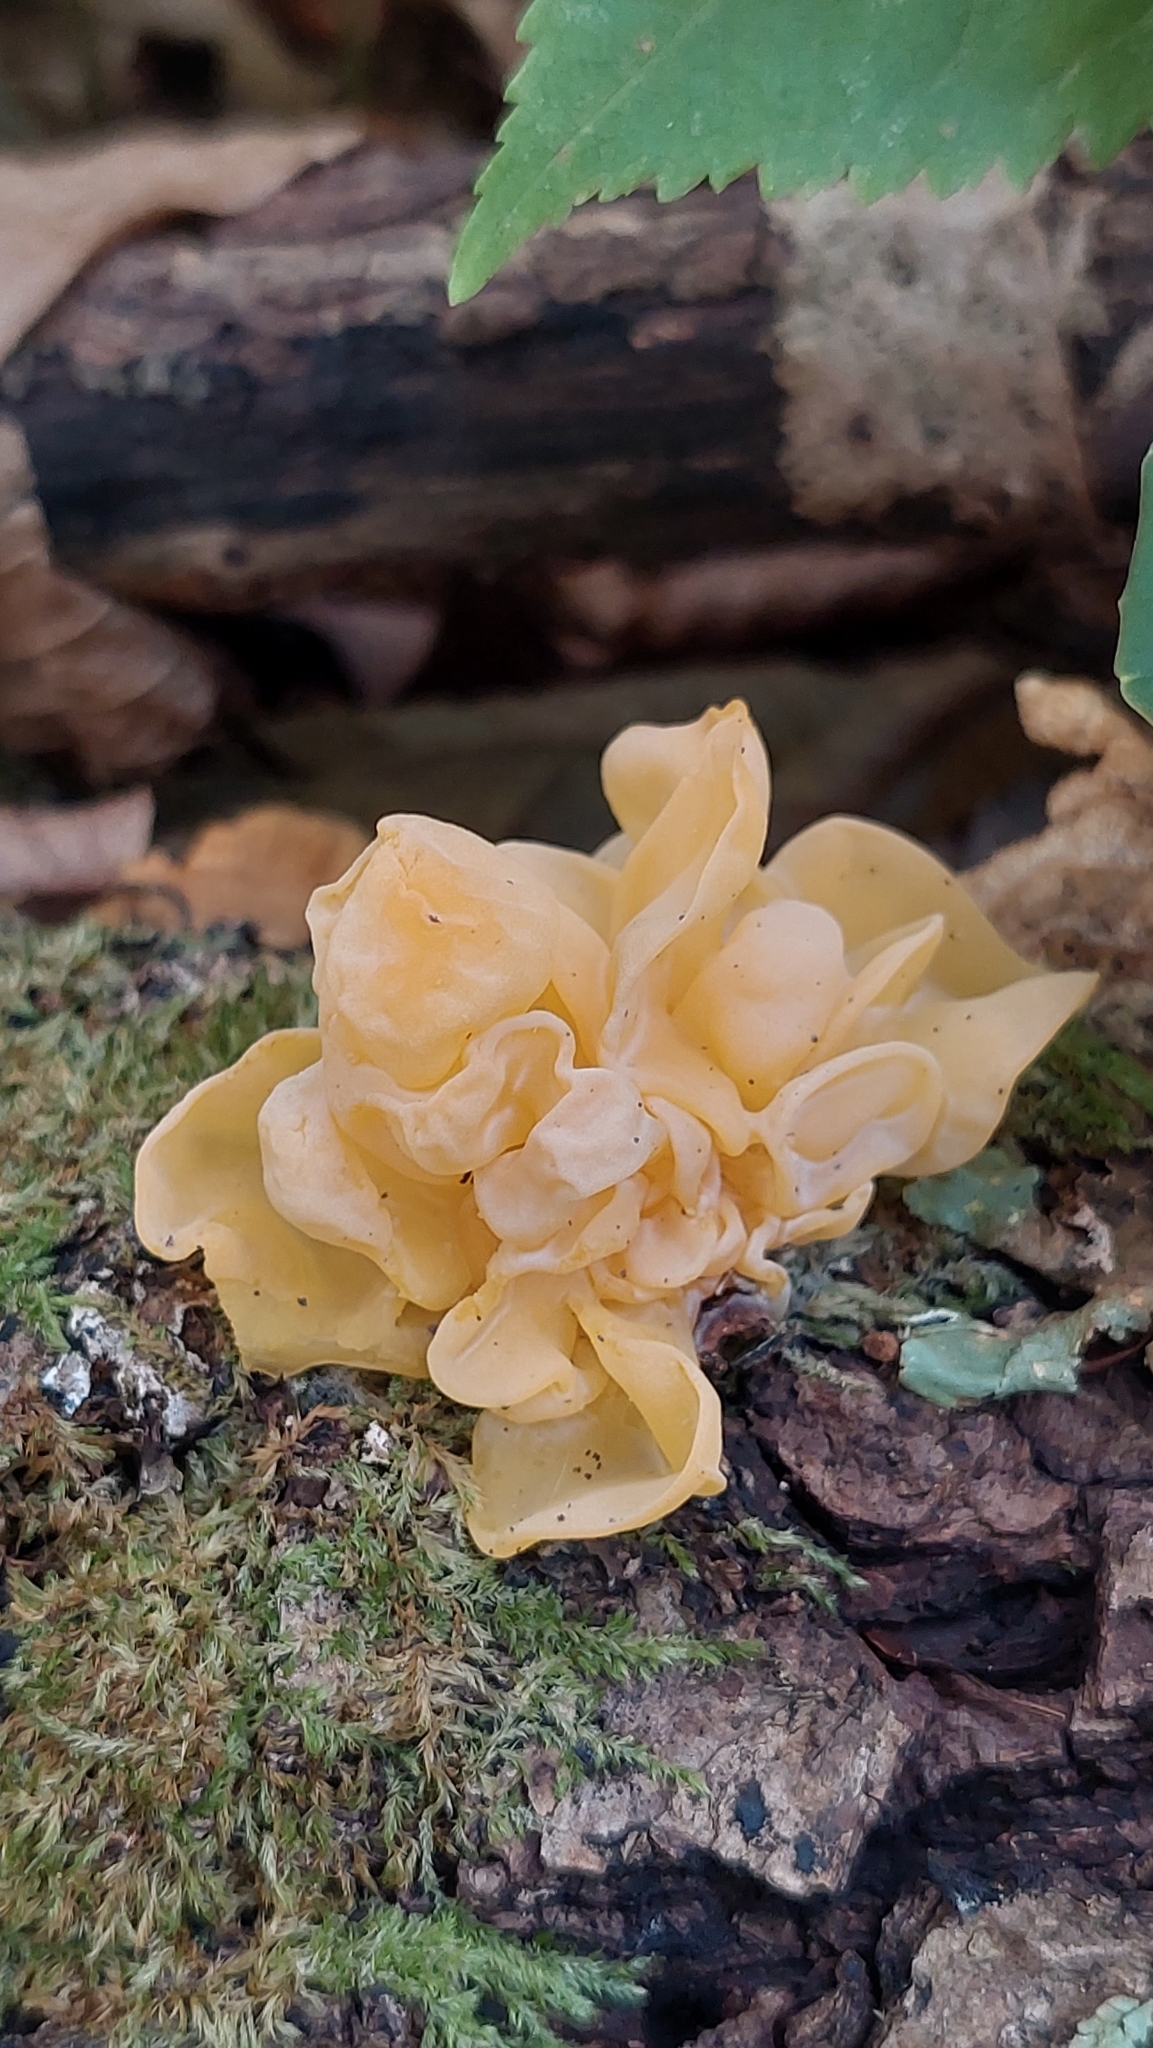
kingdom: Fungi
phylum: Basidiomycota
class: Tremellomycetes
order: Tremellales
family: Naemateliaceae
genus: Naematelia
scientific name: Naematelia aurantia
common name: Golden ear
